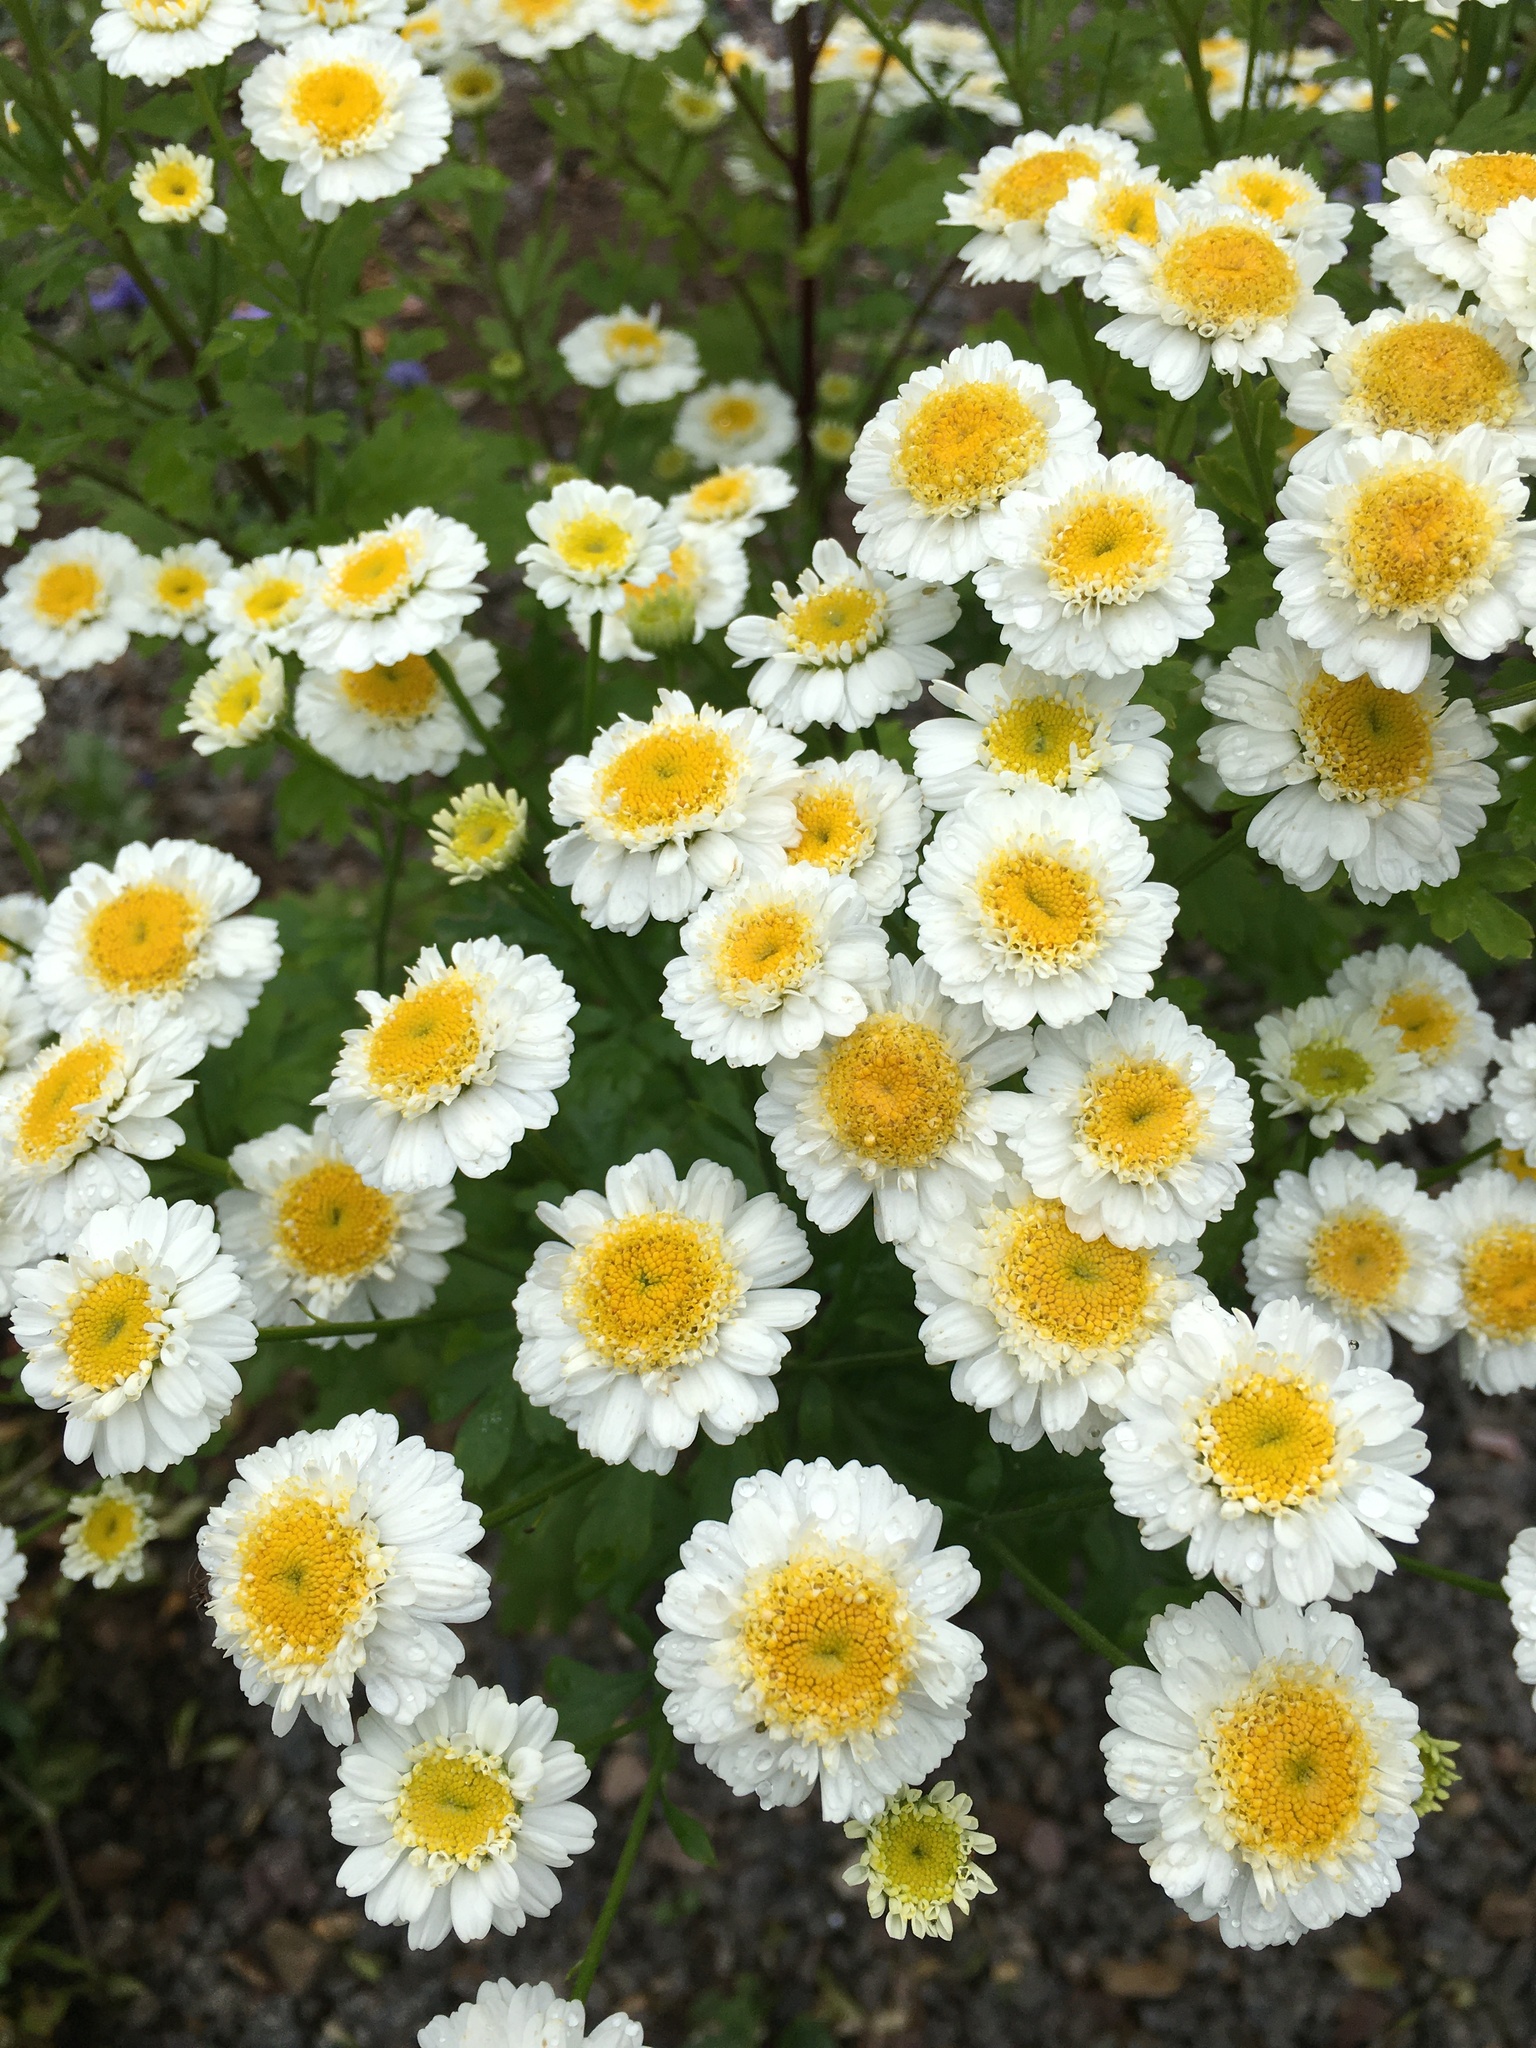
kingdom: Plantae
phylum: Tracheophyta
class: Magnoliopsida
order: Asterales
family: Asteraceae
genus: Tanacetum
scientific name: Tanacetum parthenium
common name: Feverfew
